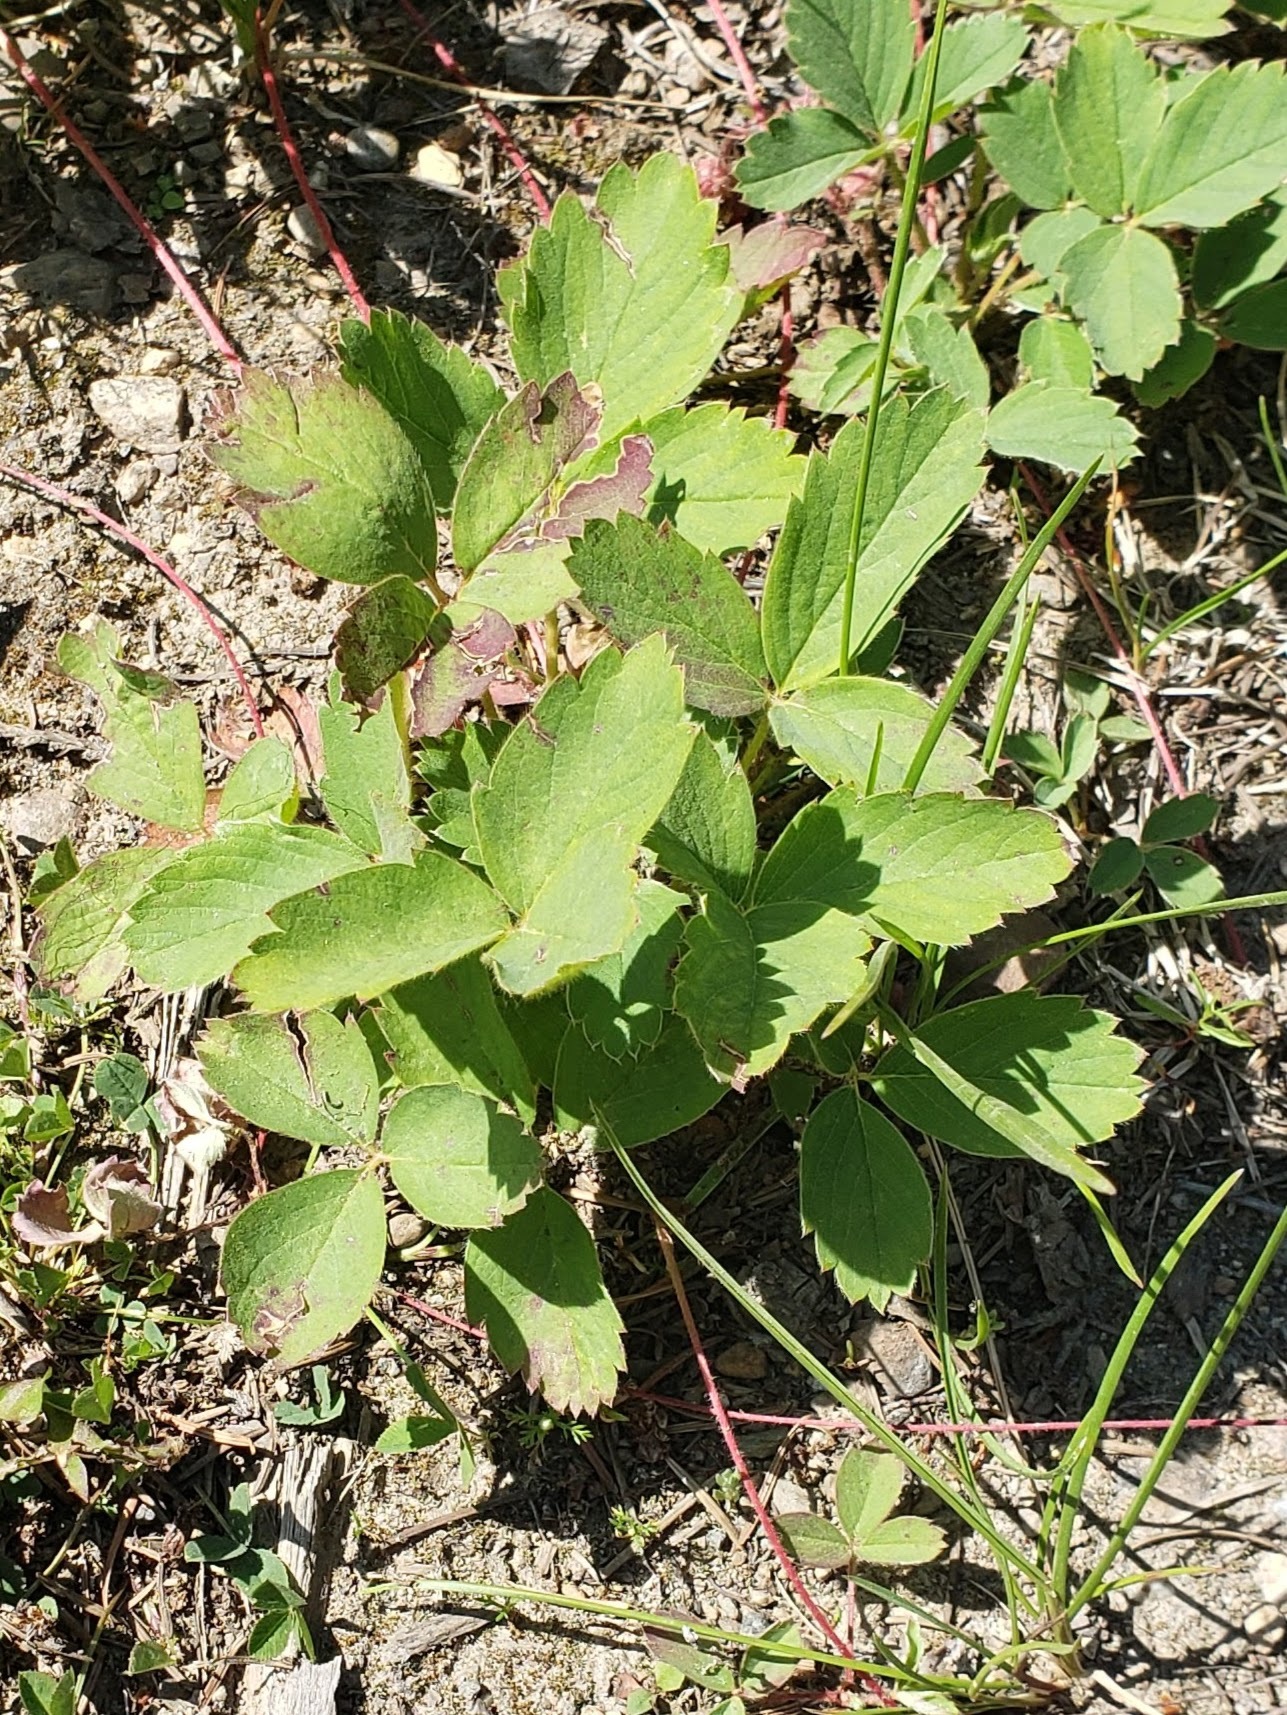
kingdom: Plantae
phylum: Tracheophyta
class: Magnoliopsida
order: Rosales
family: Rosaceae
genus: Fragaria
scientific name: Fragaria virginiana
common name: Thickleaved wild strawberry
